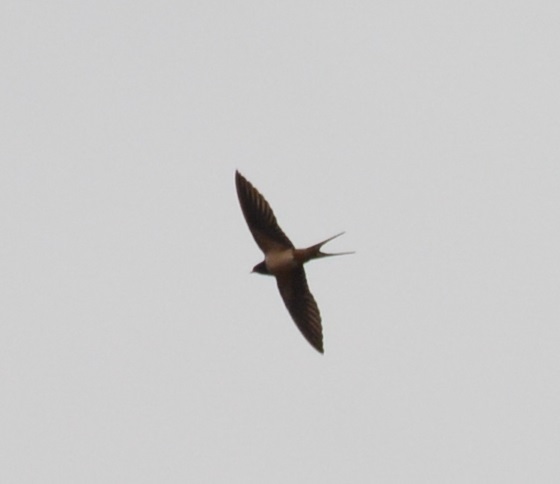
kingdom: Animalia
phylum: Chordata
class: Aves
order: Passeriformes
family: Hirundinidae
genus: Hirundo
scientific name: Hirundo rustica
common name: Barn swallow
